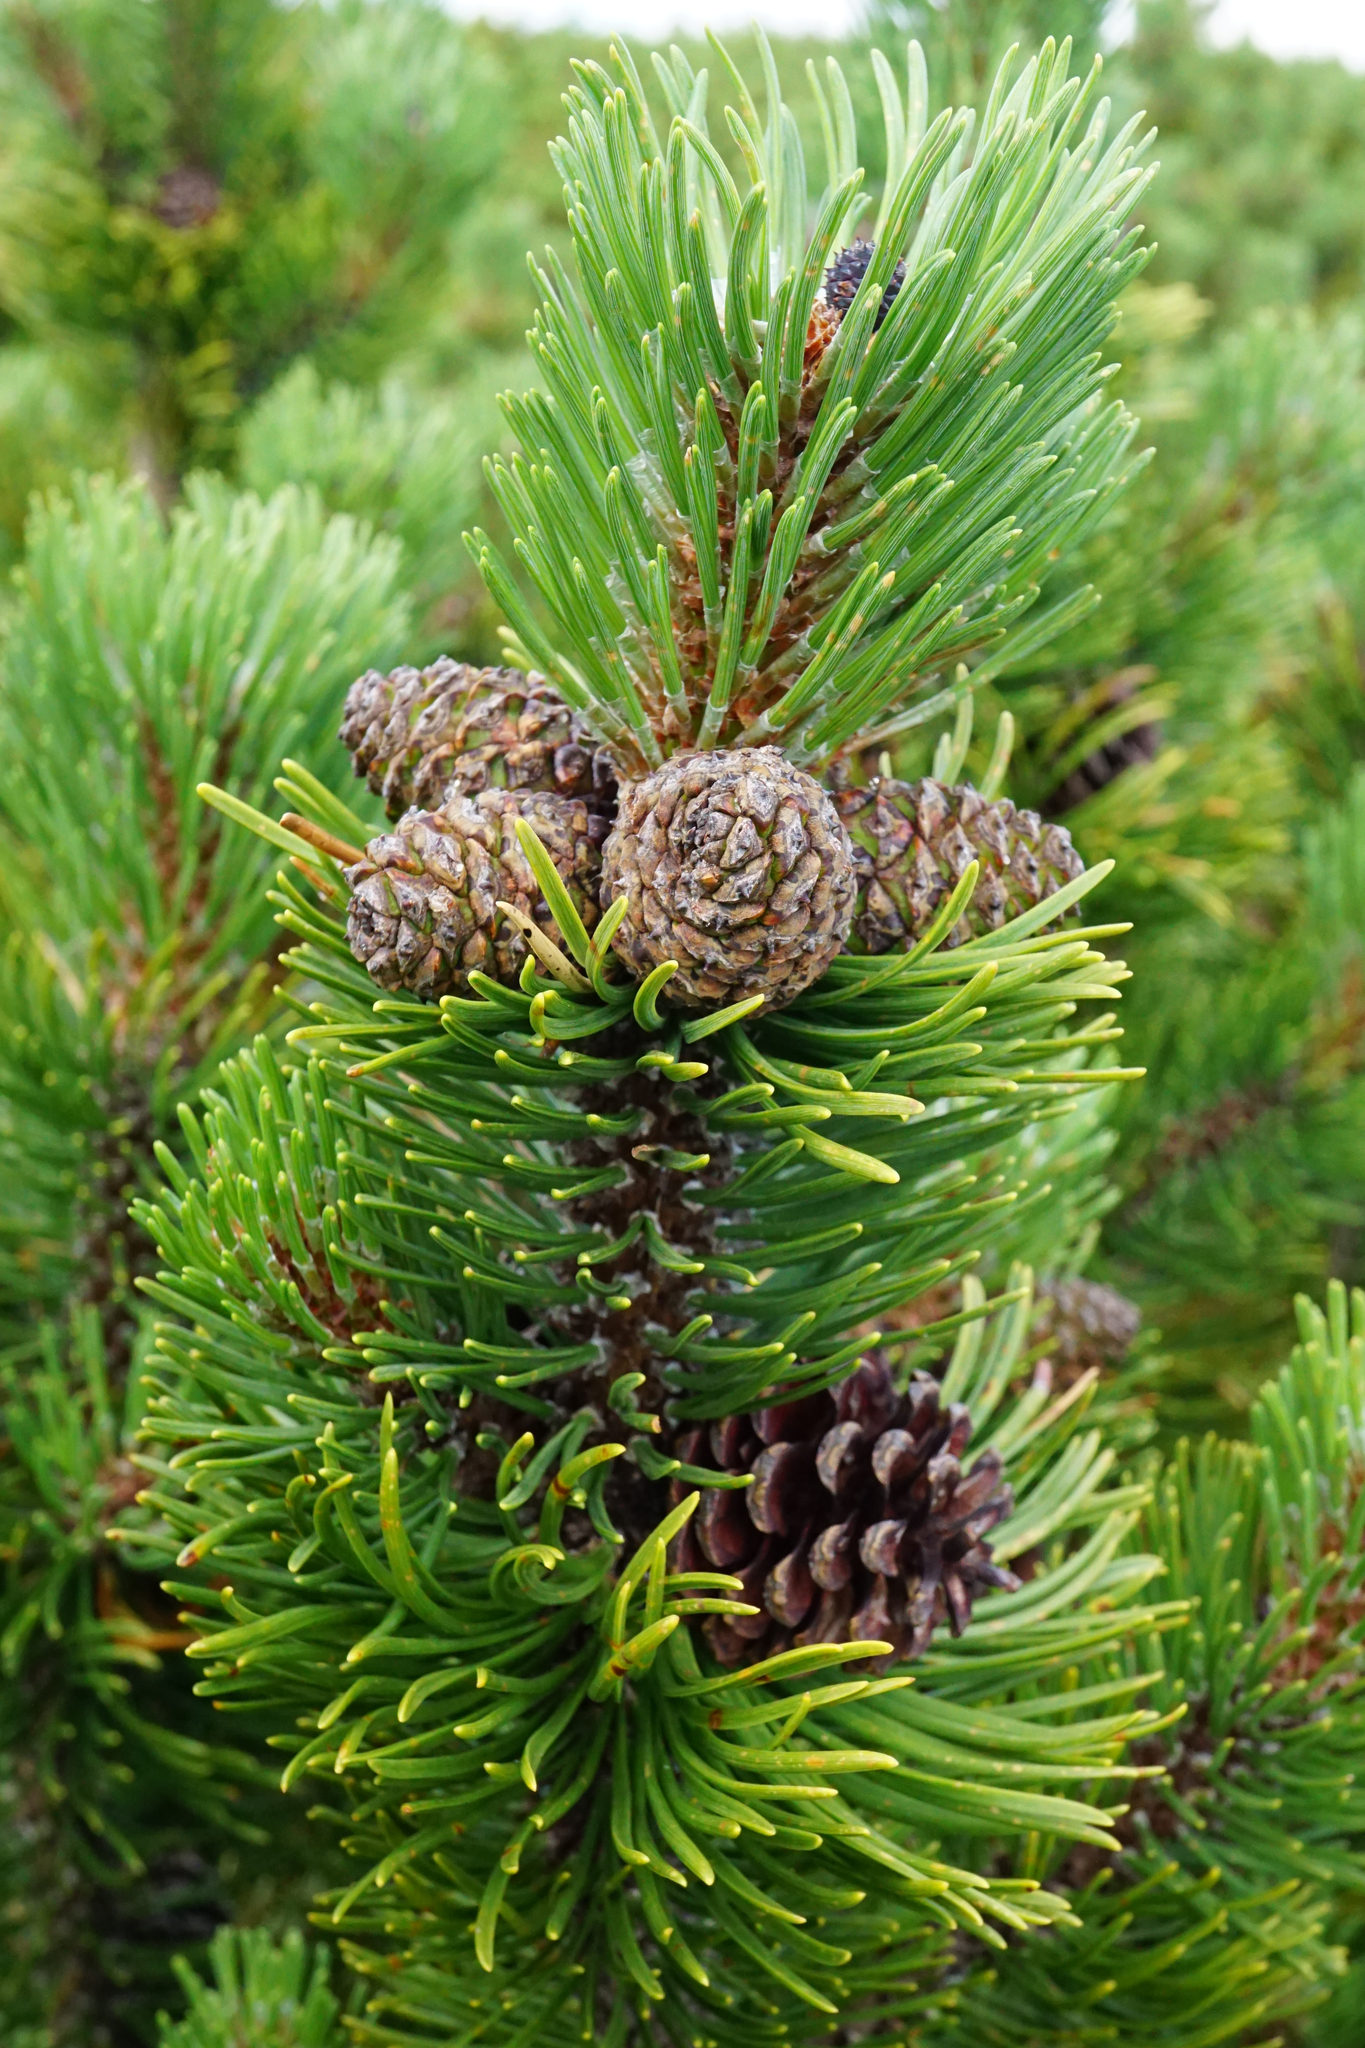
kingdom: Plantae
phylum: Tracheophyta
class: Pinopsida
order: Pinales
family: Pinaceae
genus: Pinus
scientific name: Pinus mugo
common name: Mugo pine
